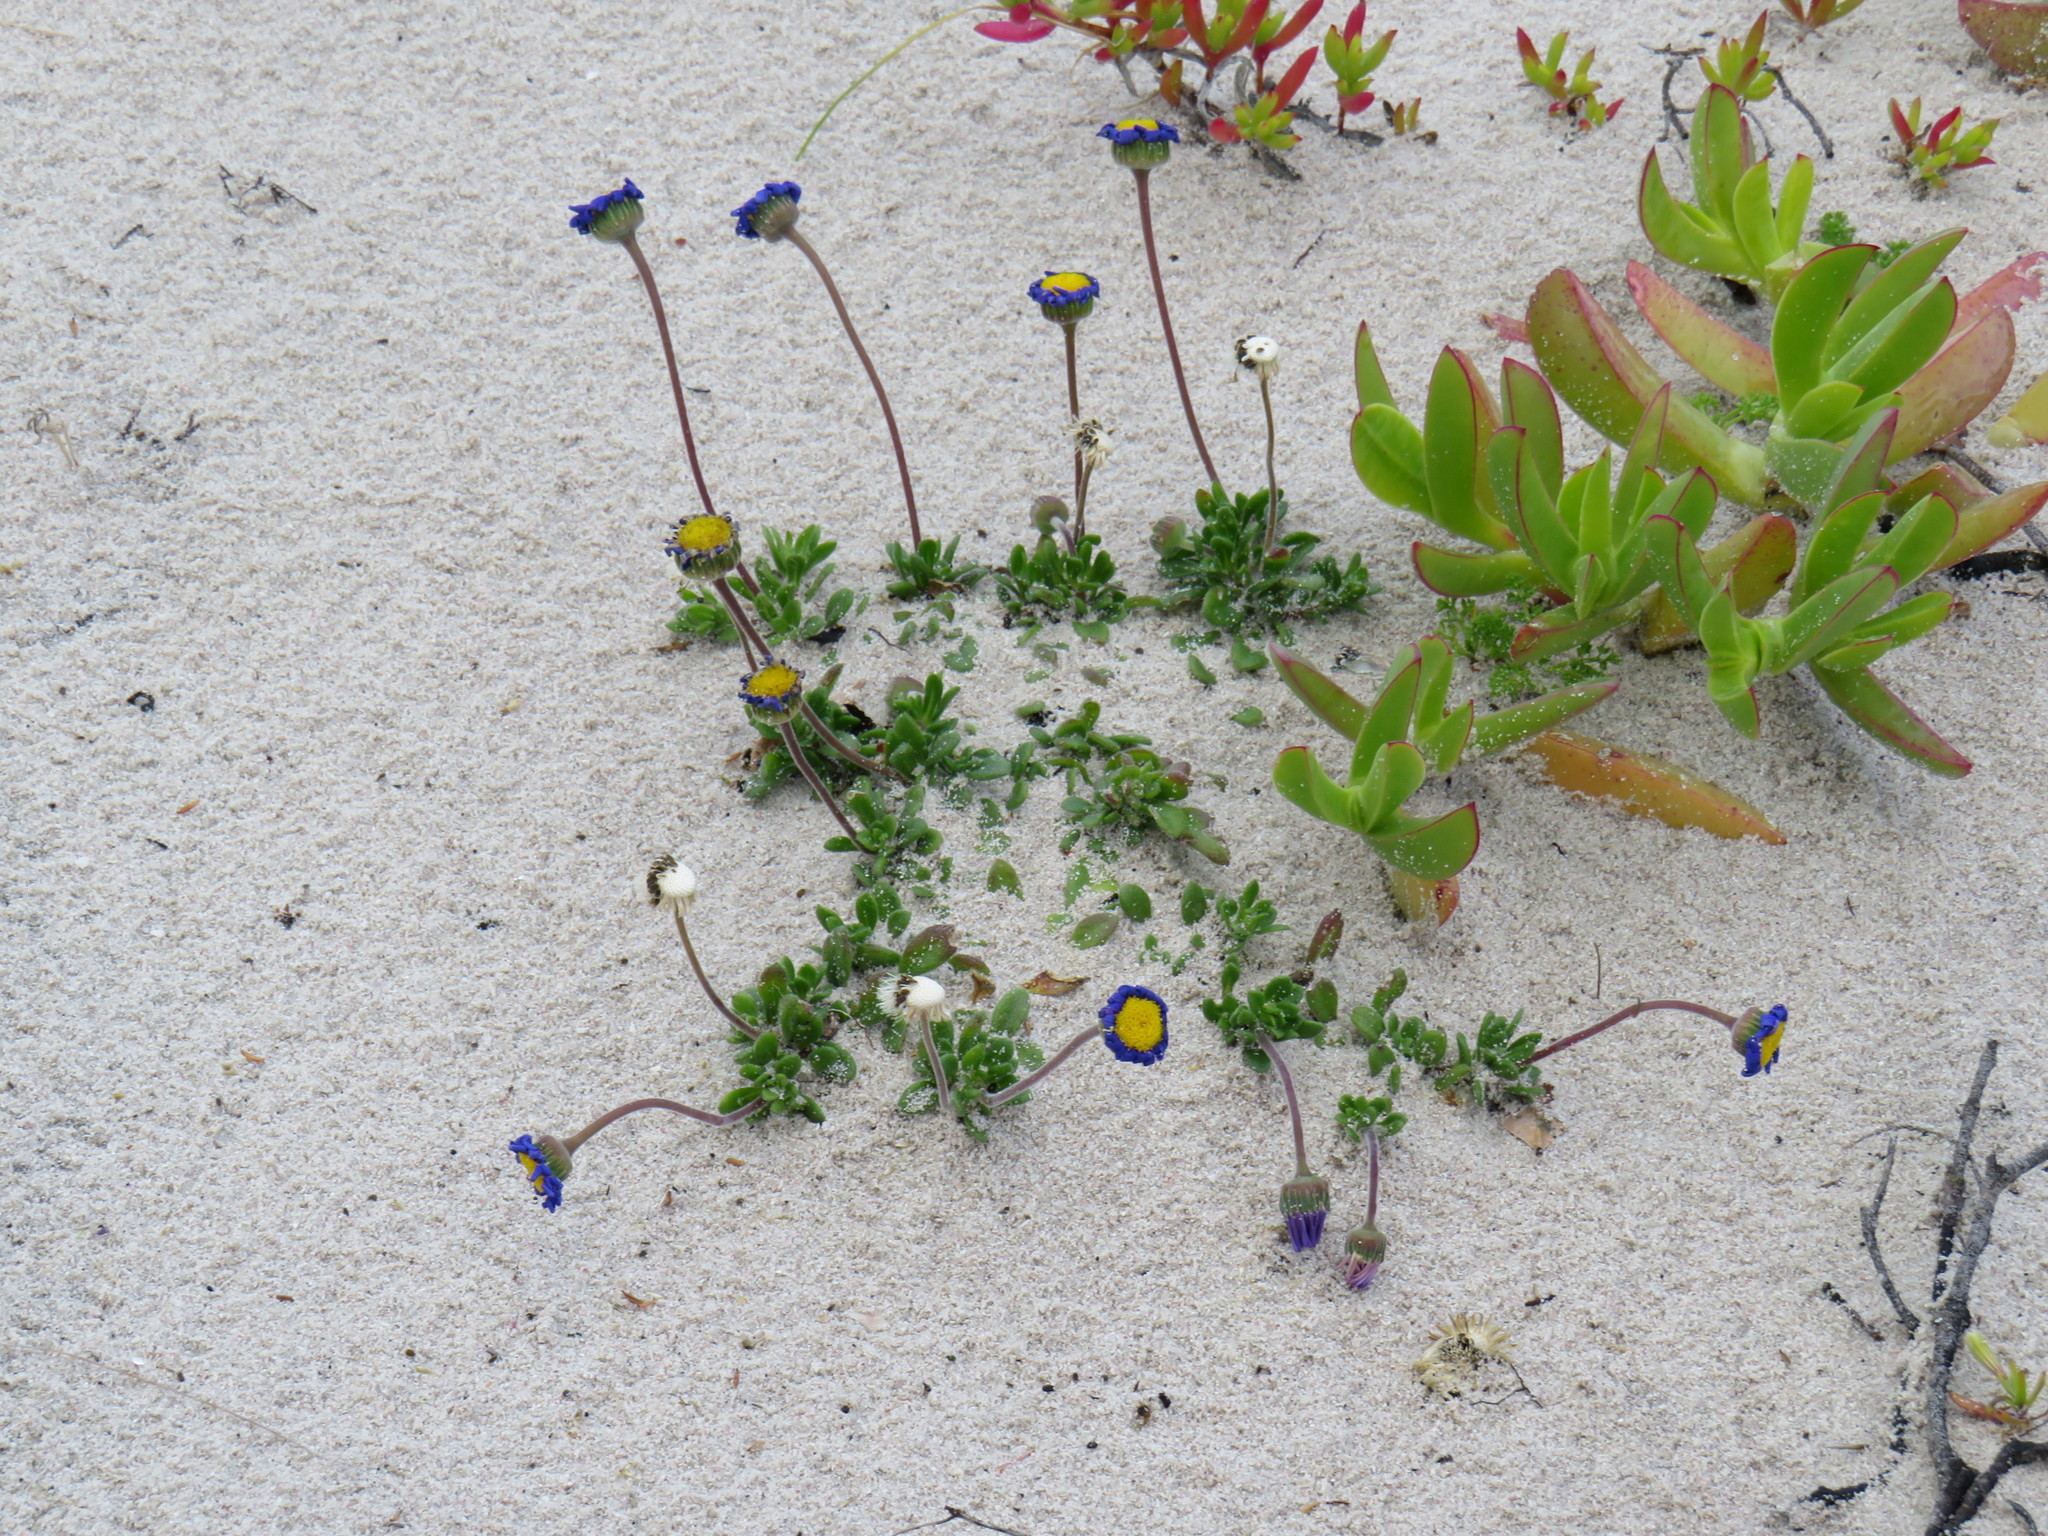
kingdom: Plantae
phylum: Tracheophyta
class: Magnoliopsida
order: Asterales
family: Asteraceae
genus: Felicia
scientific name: Felicia amoena
